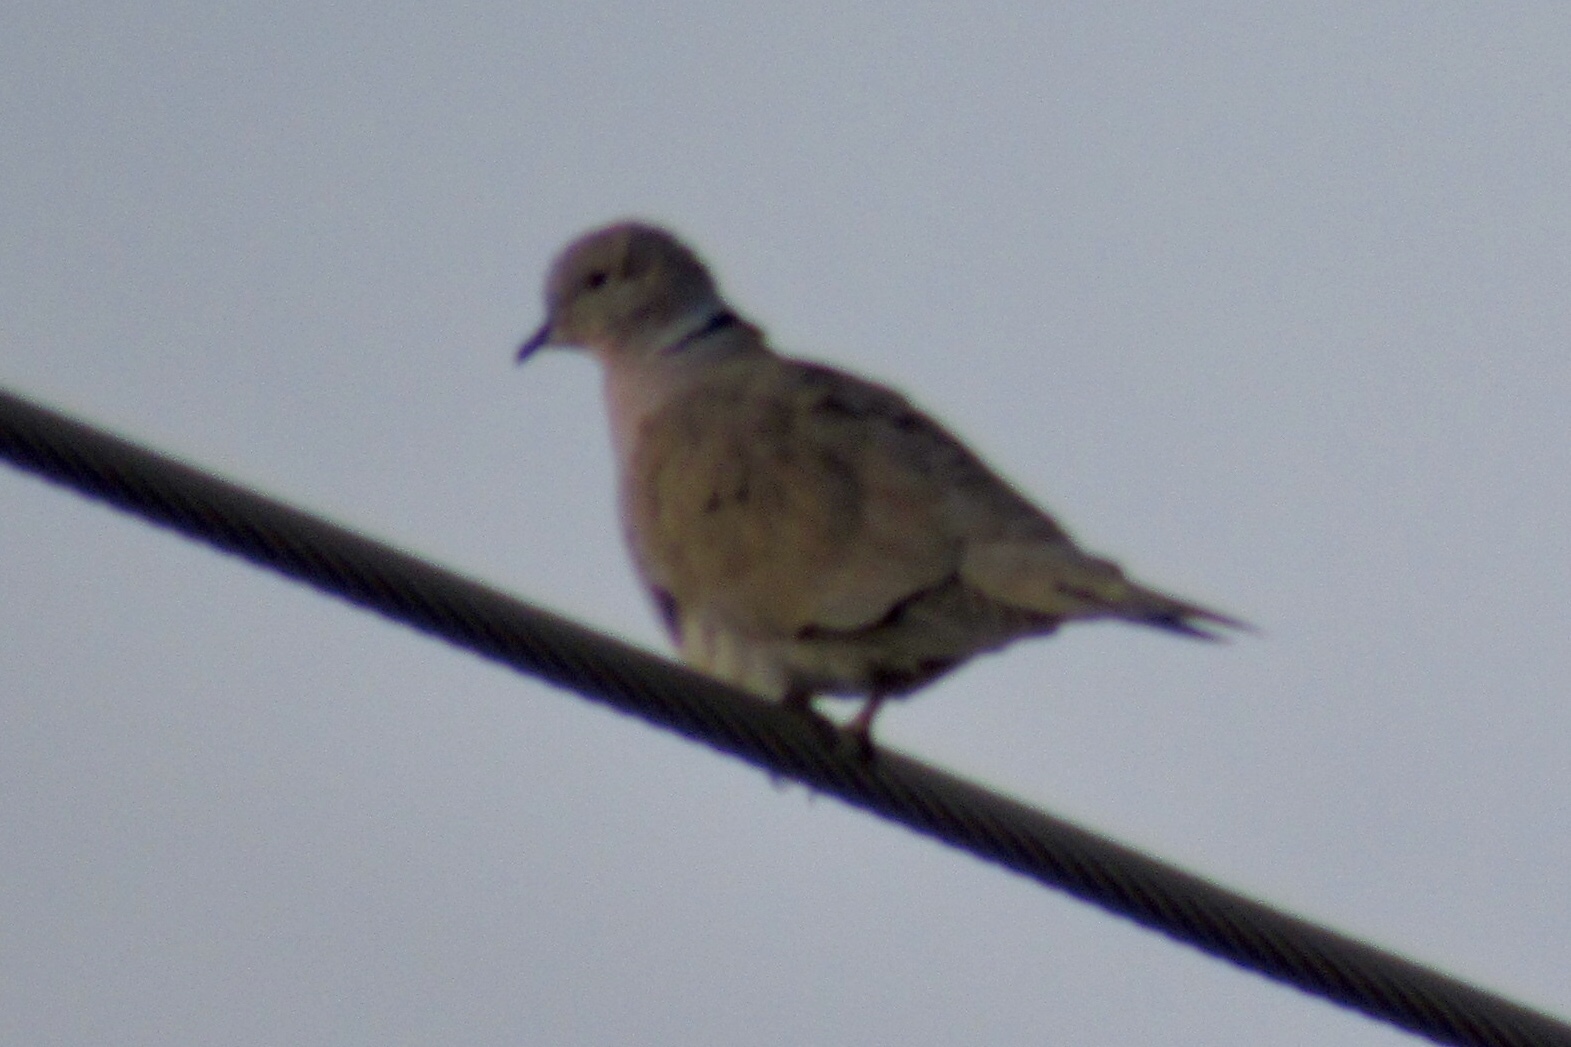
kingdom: Animalia
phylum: Chordata
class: Aves
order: Columbiformes
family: Columbidae
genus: Streptopelia
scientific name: Streptopelia decaocto
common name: Eurasian collared dove
